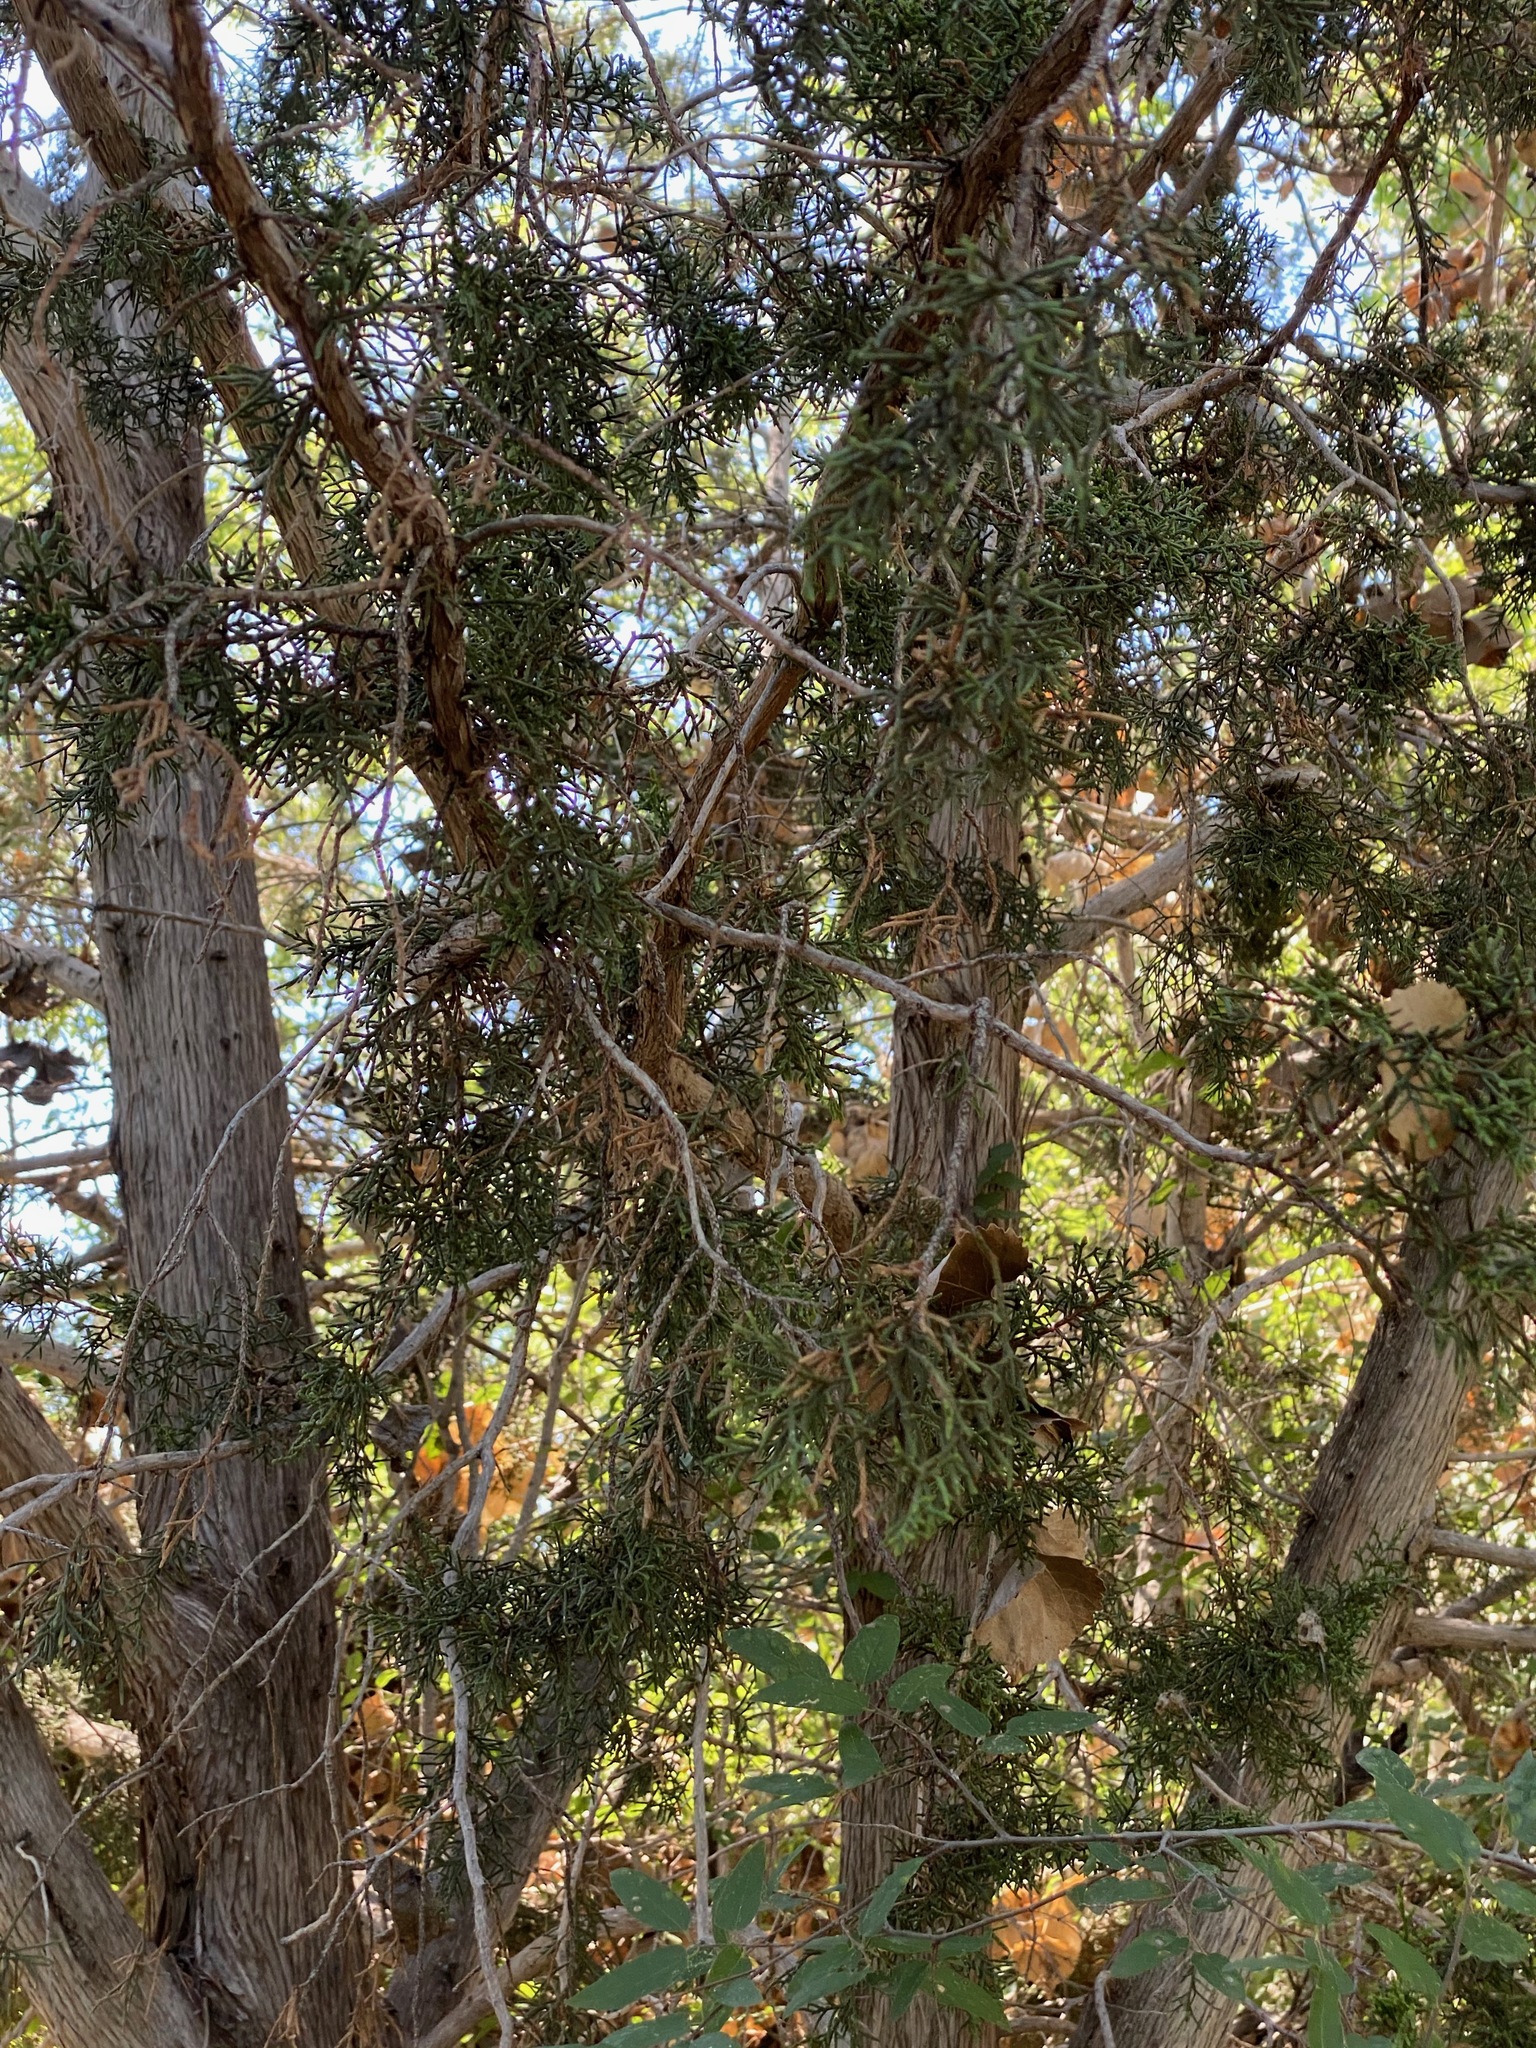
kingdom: Plantae
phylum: Tracheophyta
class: Pinopsida
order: Pinales
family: Cupressaceae
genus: Juniperus
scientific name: Juniperus arizonica
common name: Arizona juniper
